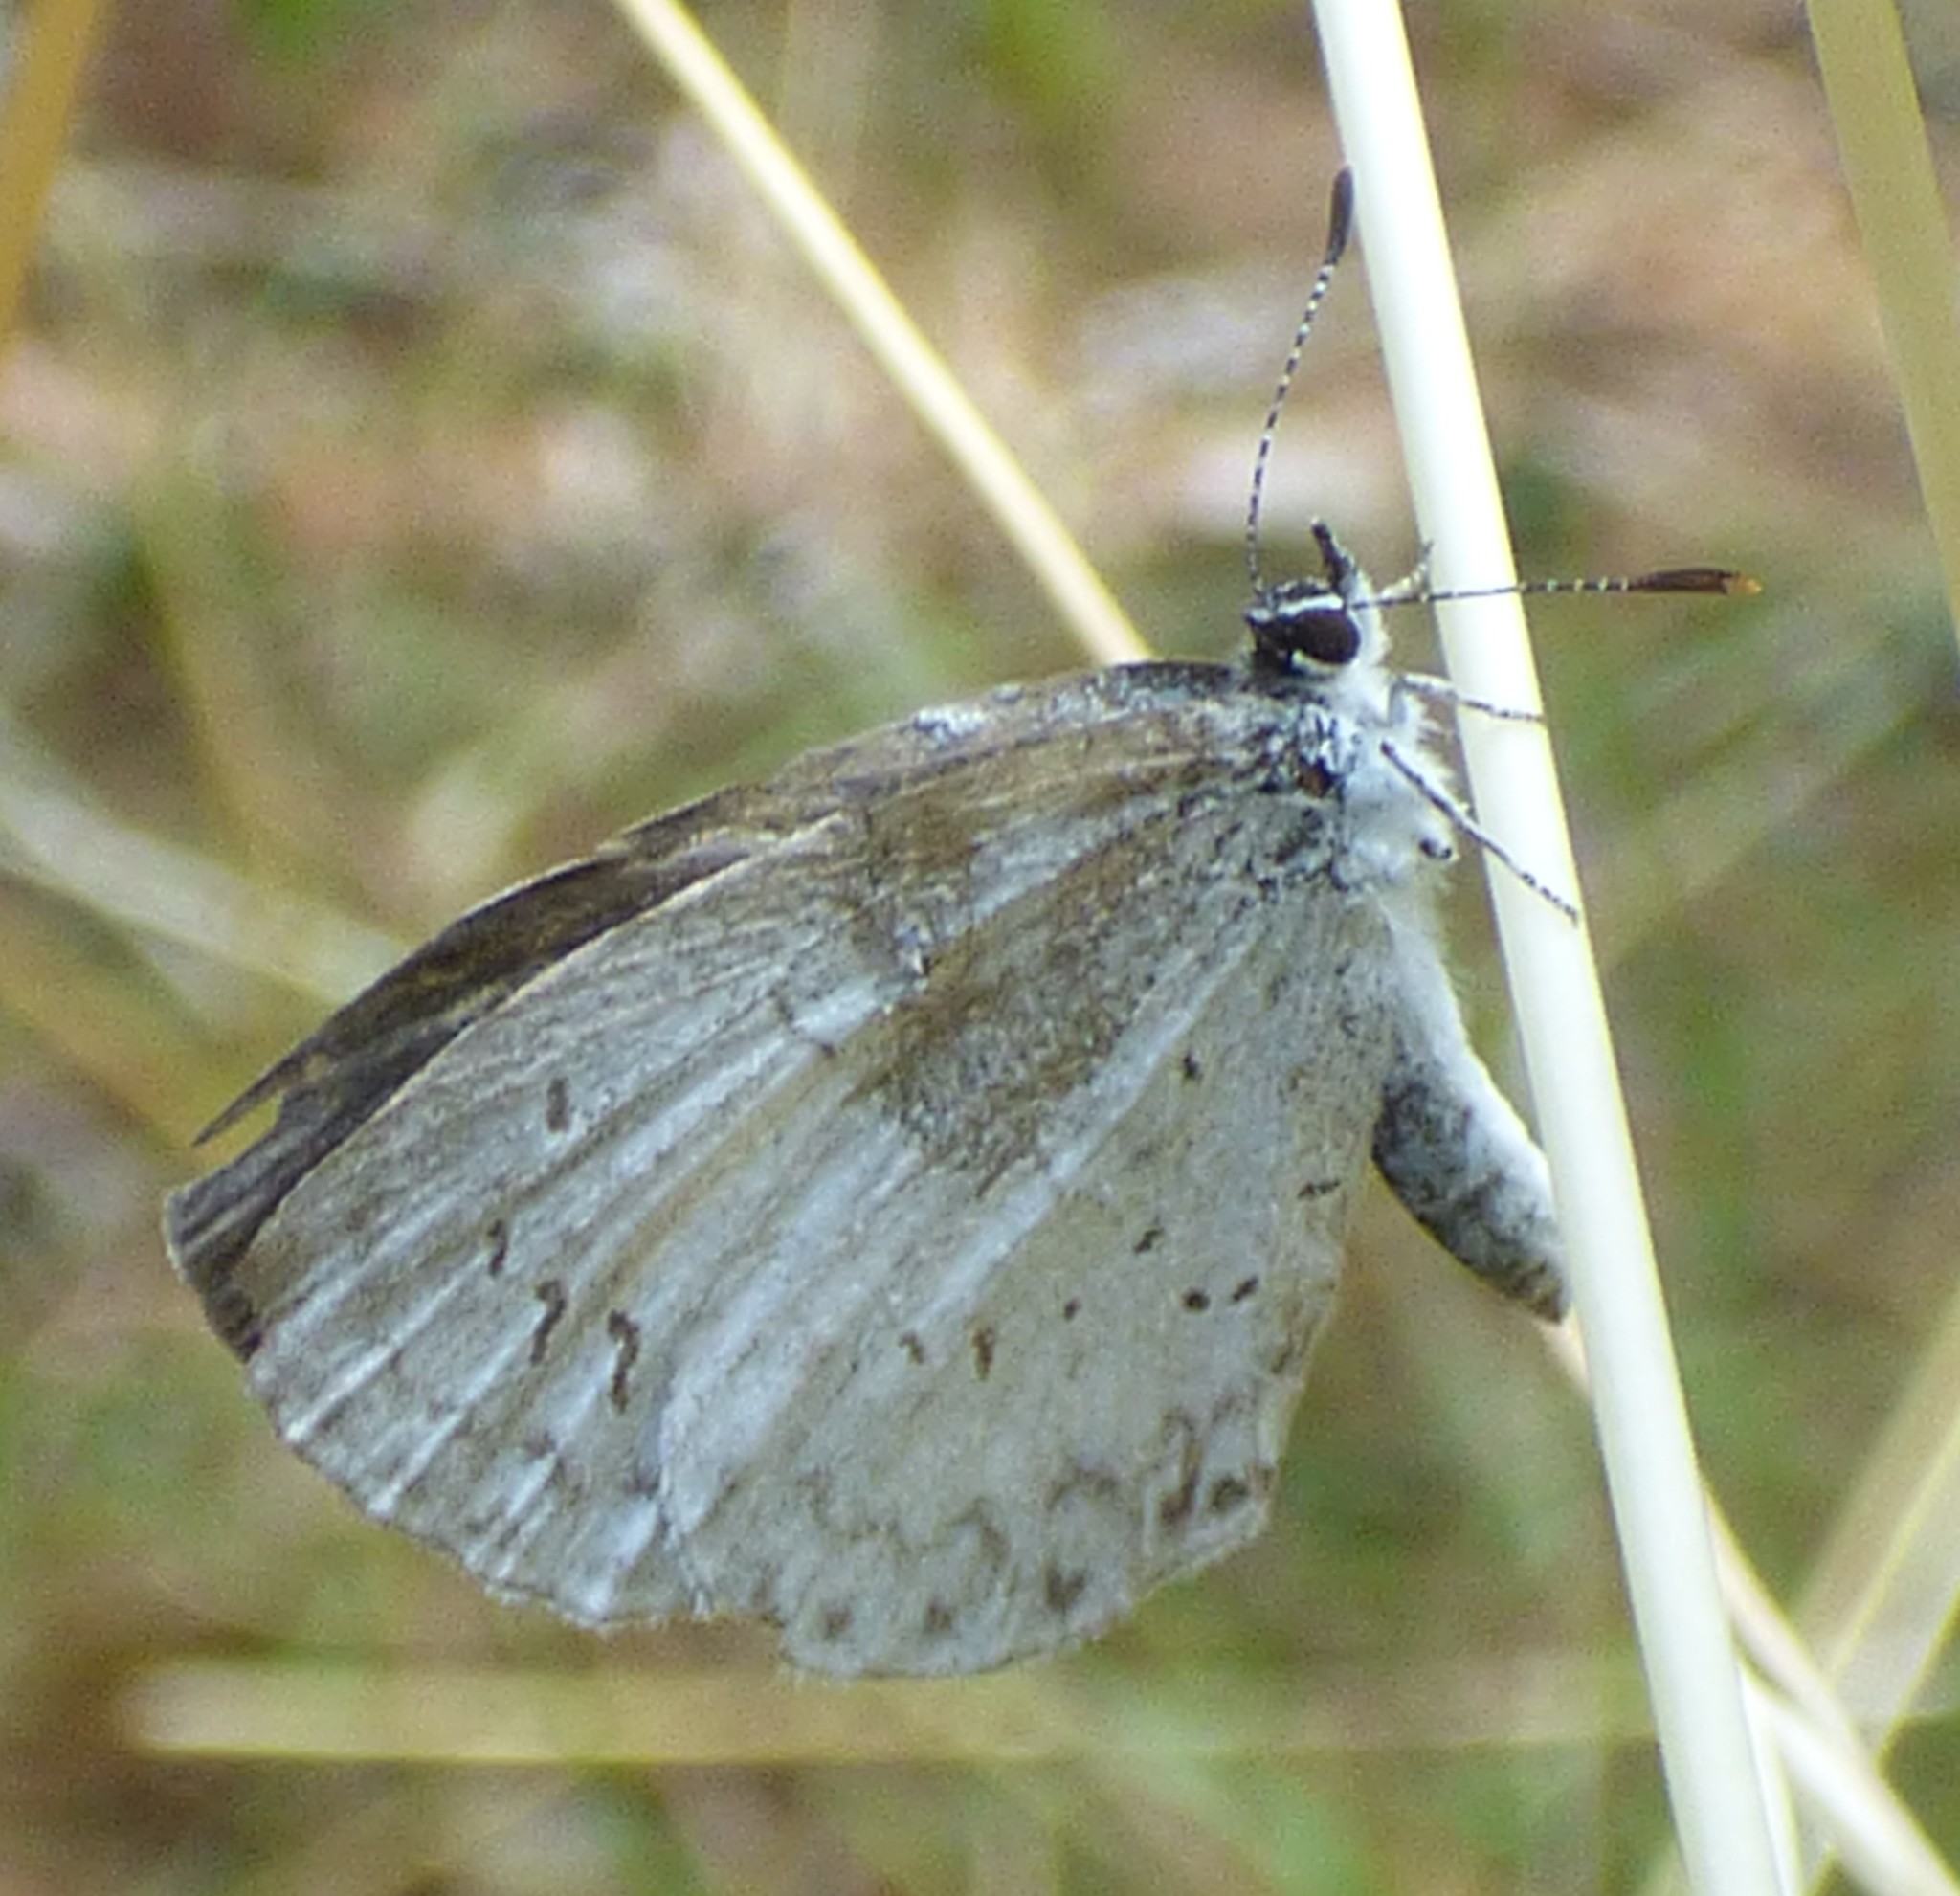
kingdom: Animalia
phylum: Arthropoda
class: Insecta
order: Lepidoptera
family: Lycaenidae
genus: Cyaniris
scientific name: Cyaniris neglecta
